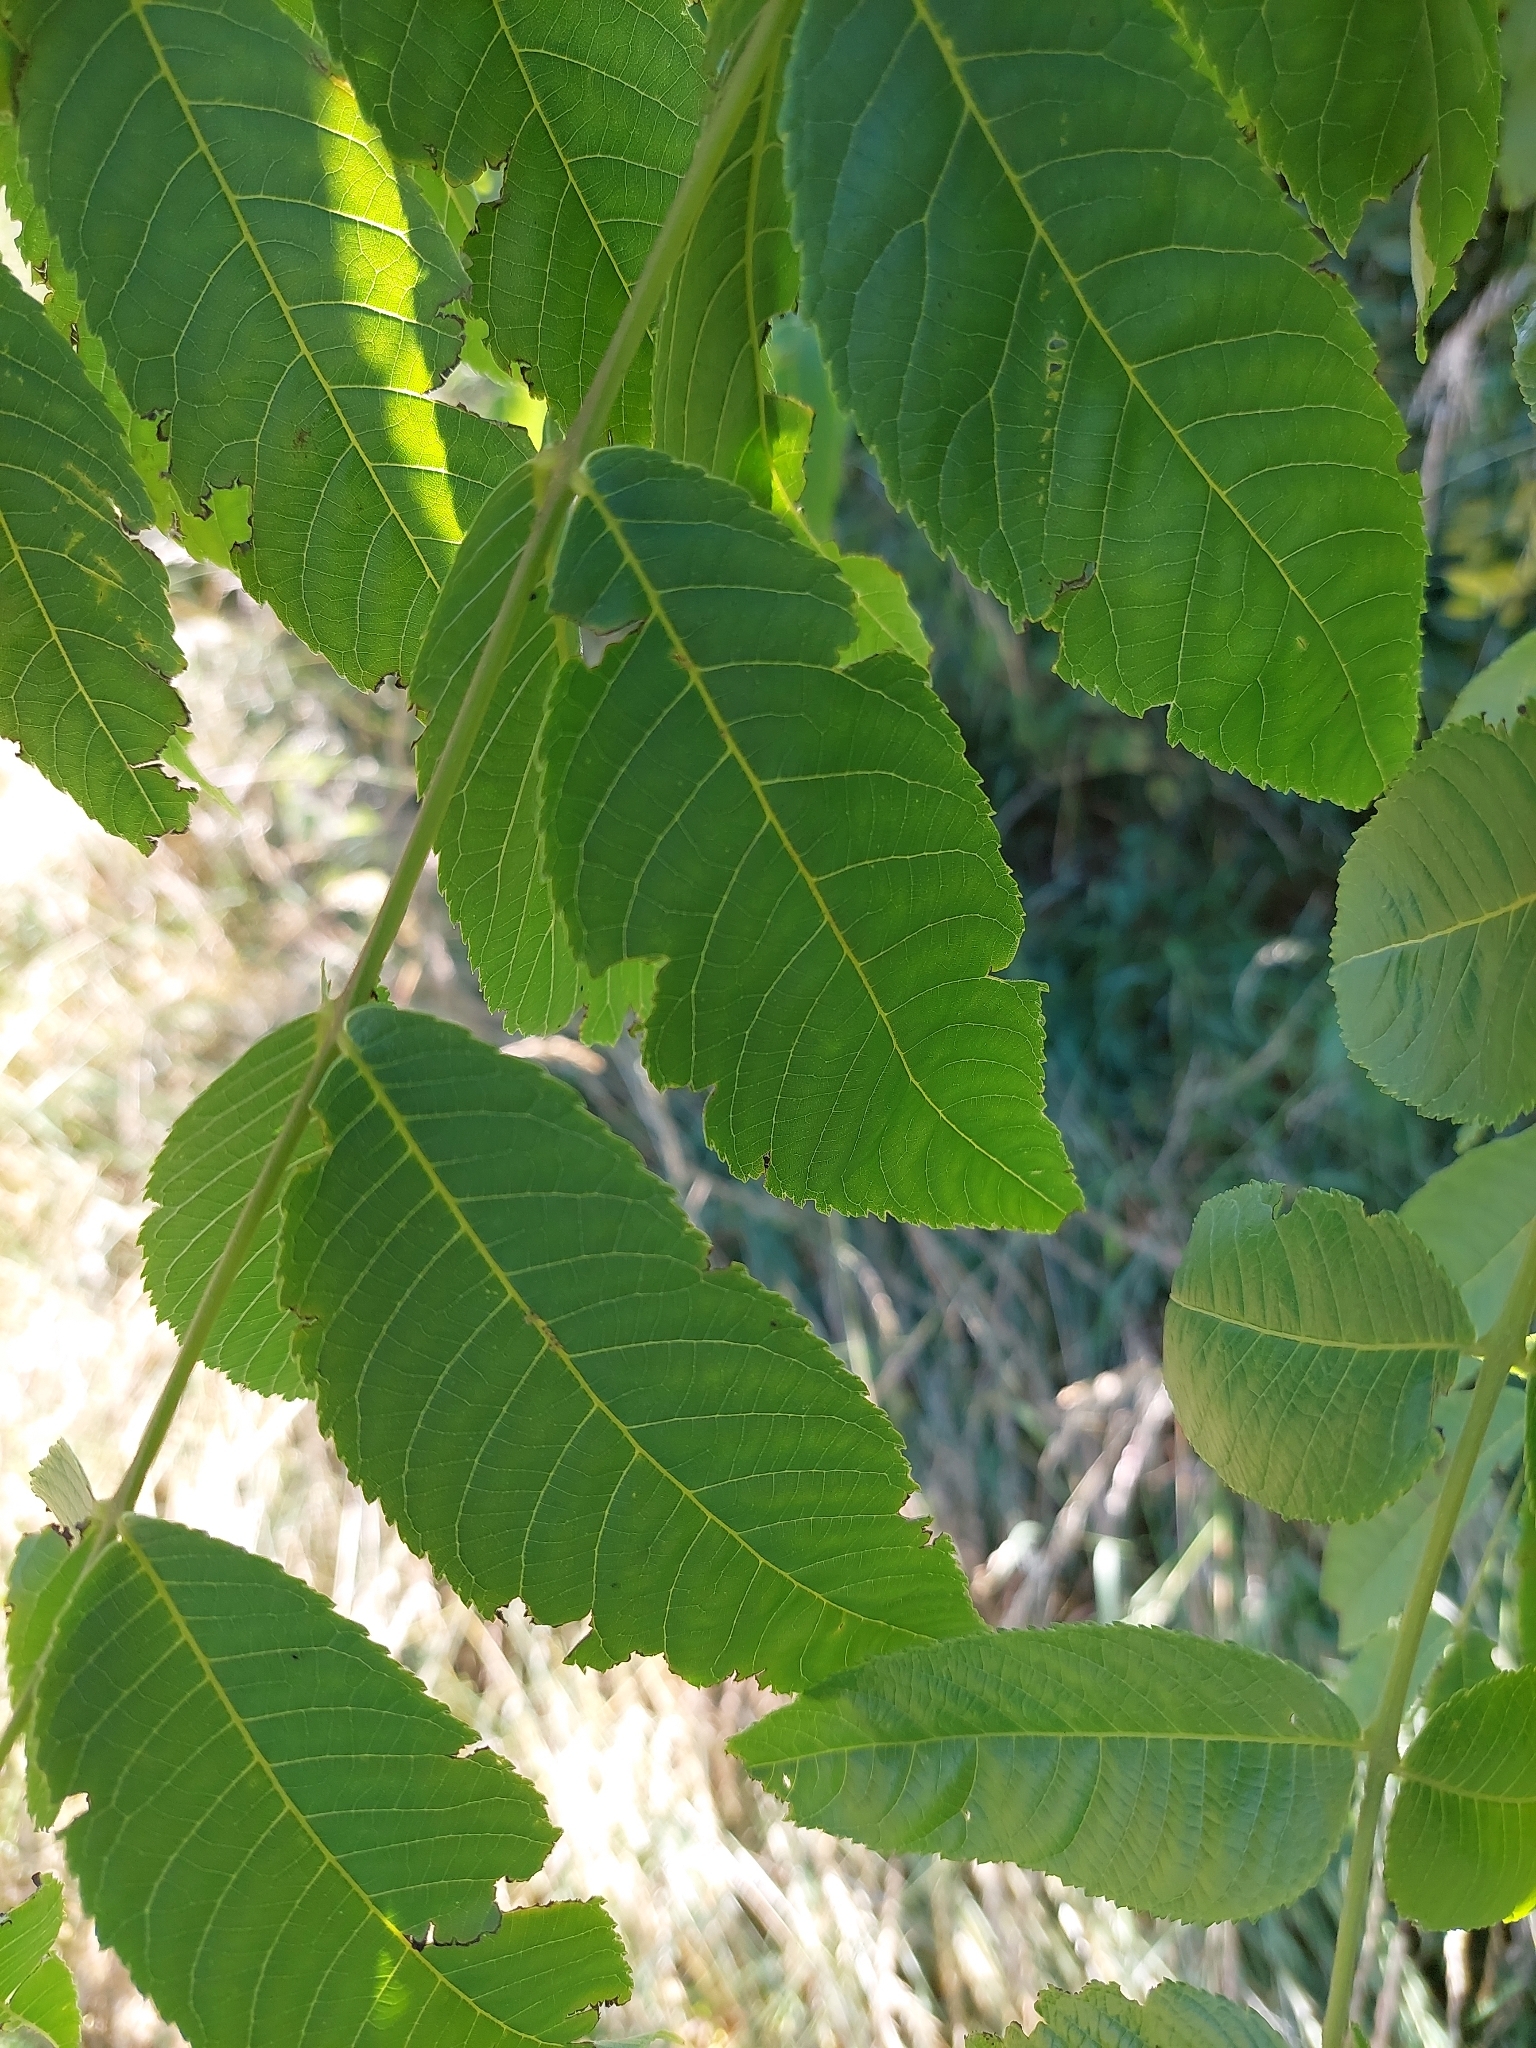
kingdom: Plantae
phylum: Tracheophyta
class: Magnoliopsida
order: Fagales
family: Juglandaceae
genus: Juglans
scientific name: Juglans regia
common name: Walnut
